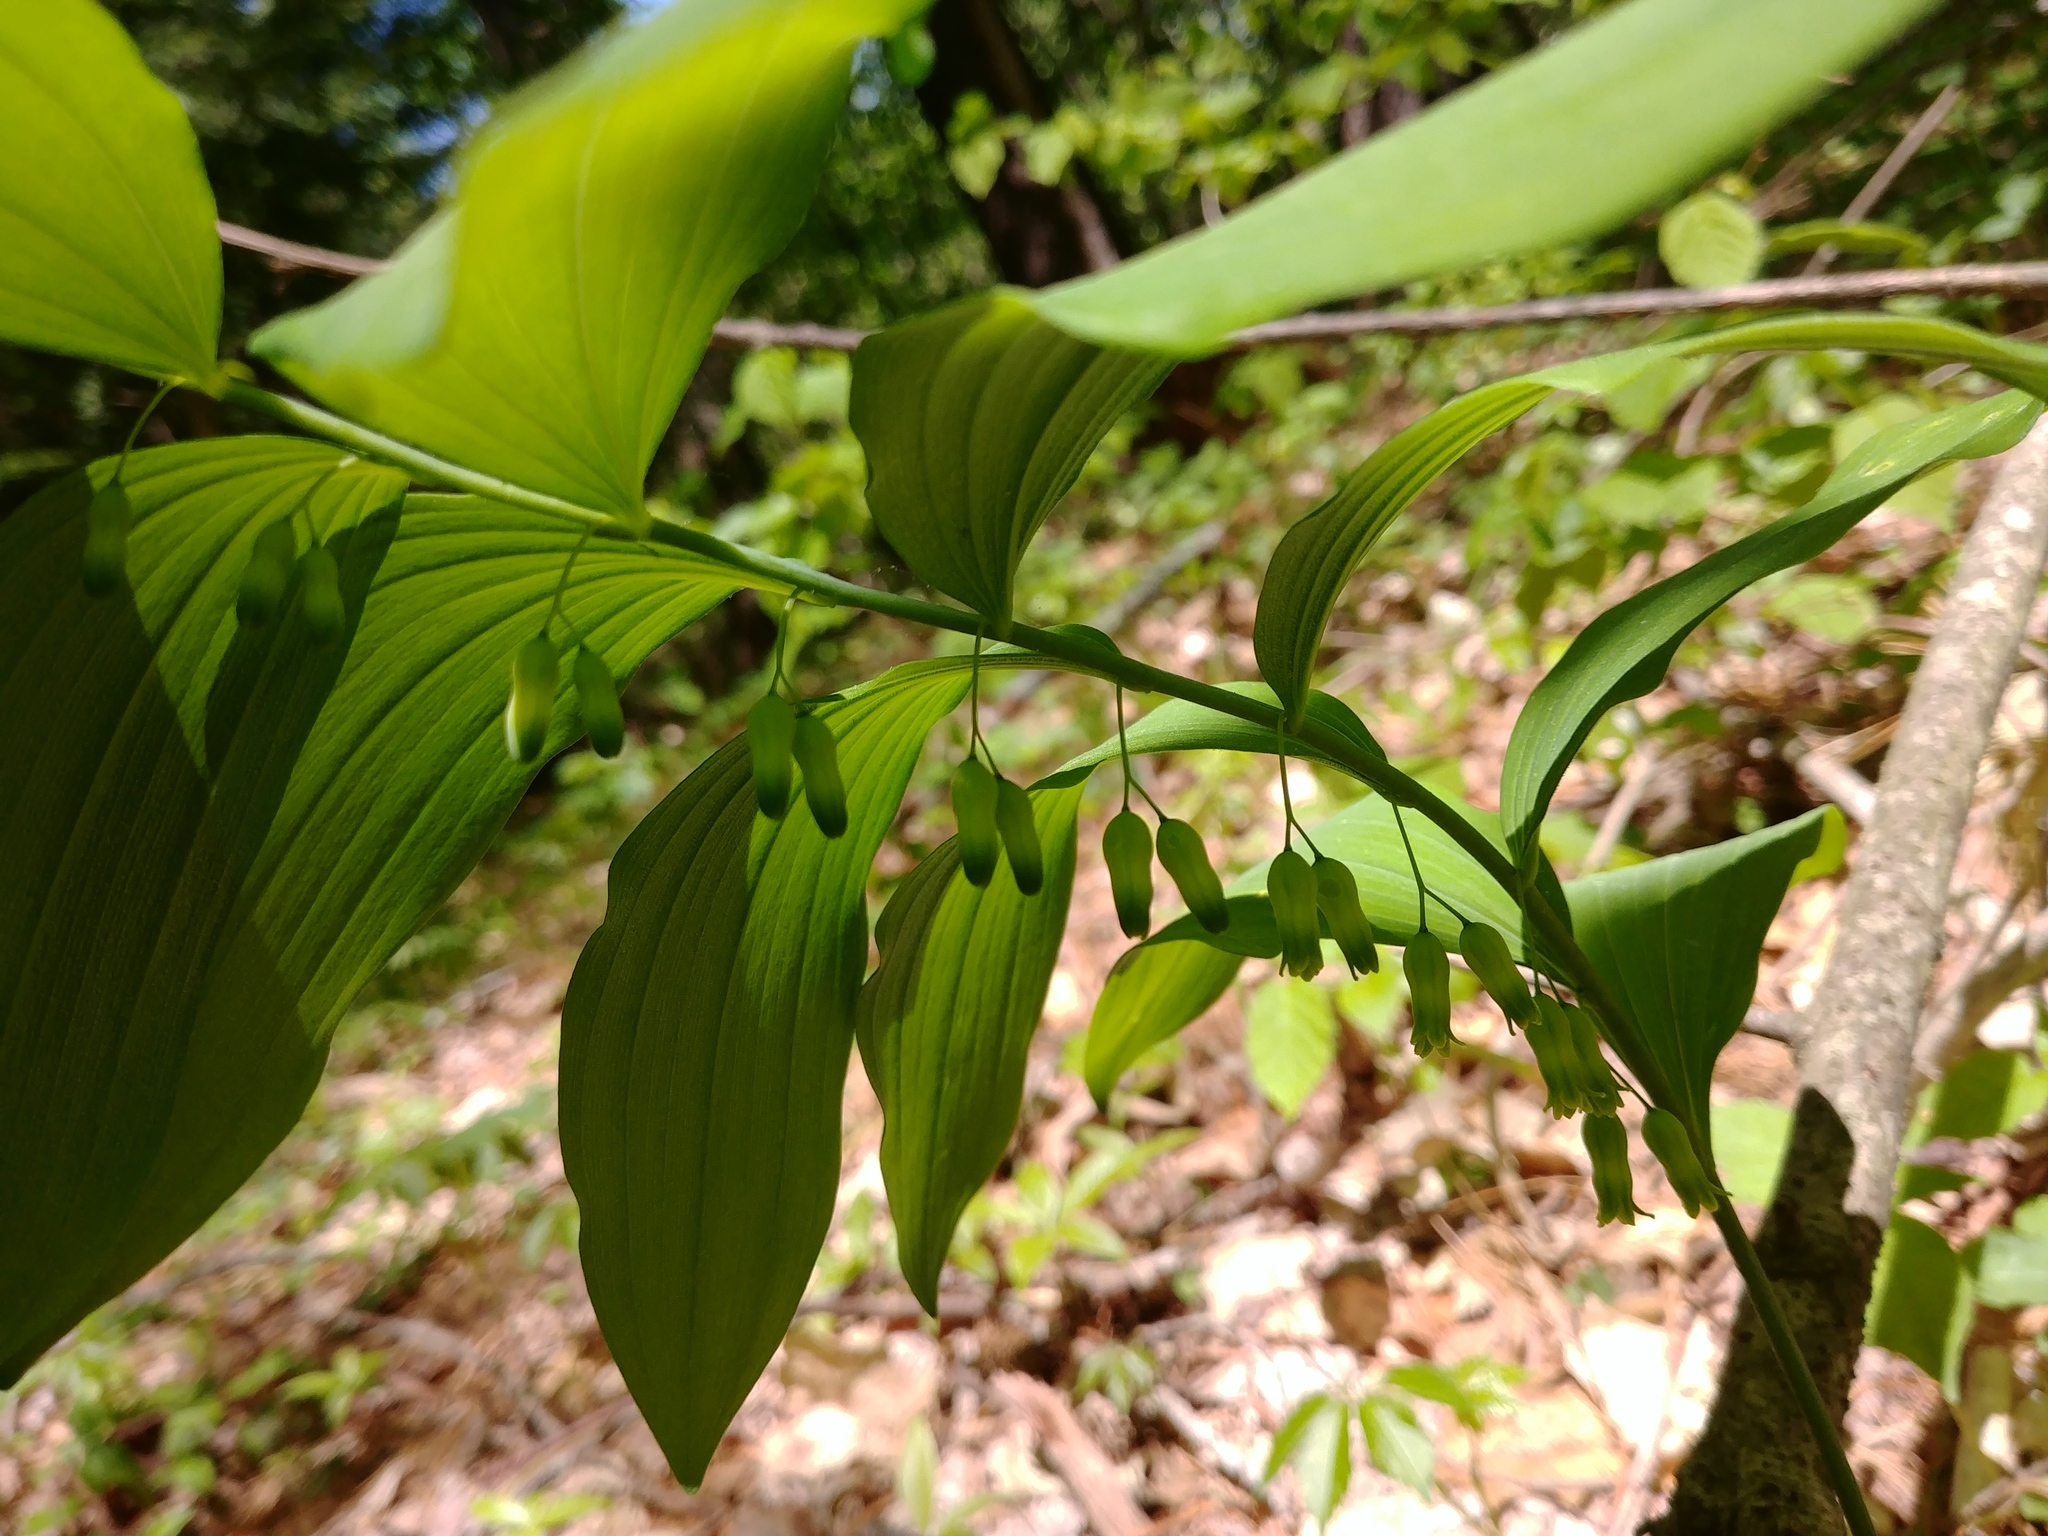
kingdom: Plantae
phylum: Tracheophyta
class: Liliopsida
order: Asparagales
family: Asparagaceae
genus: Polygonatum
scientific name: Polygonatum pubescens
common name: Downy solomon's seal
